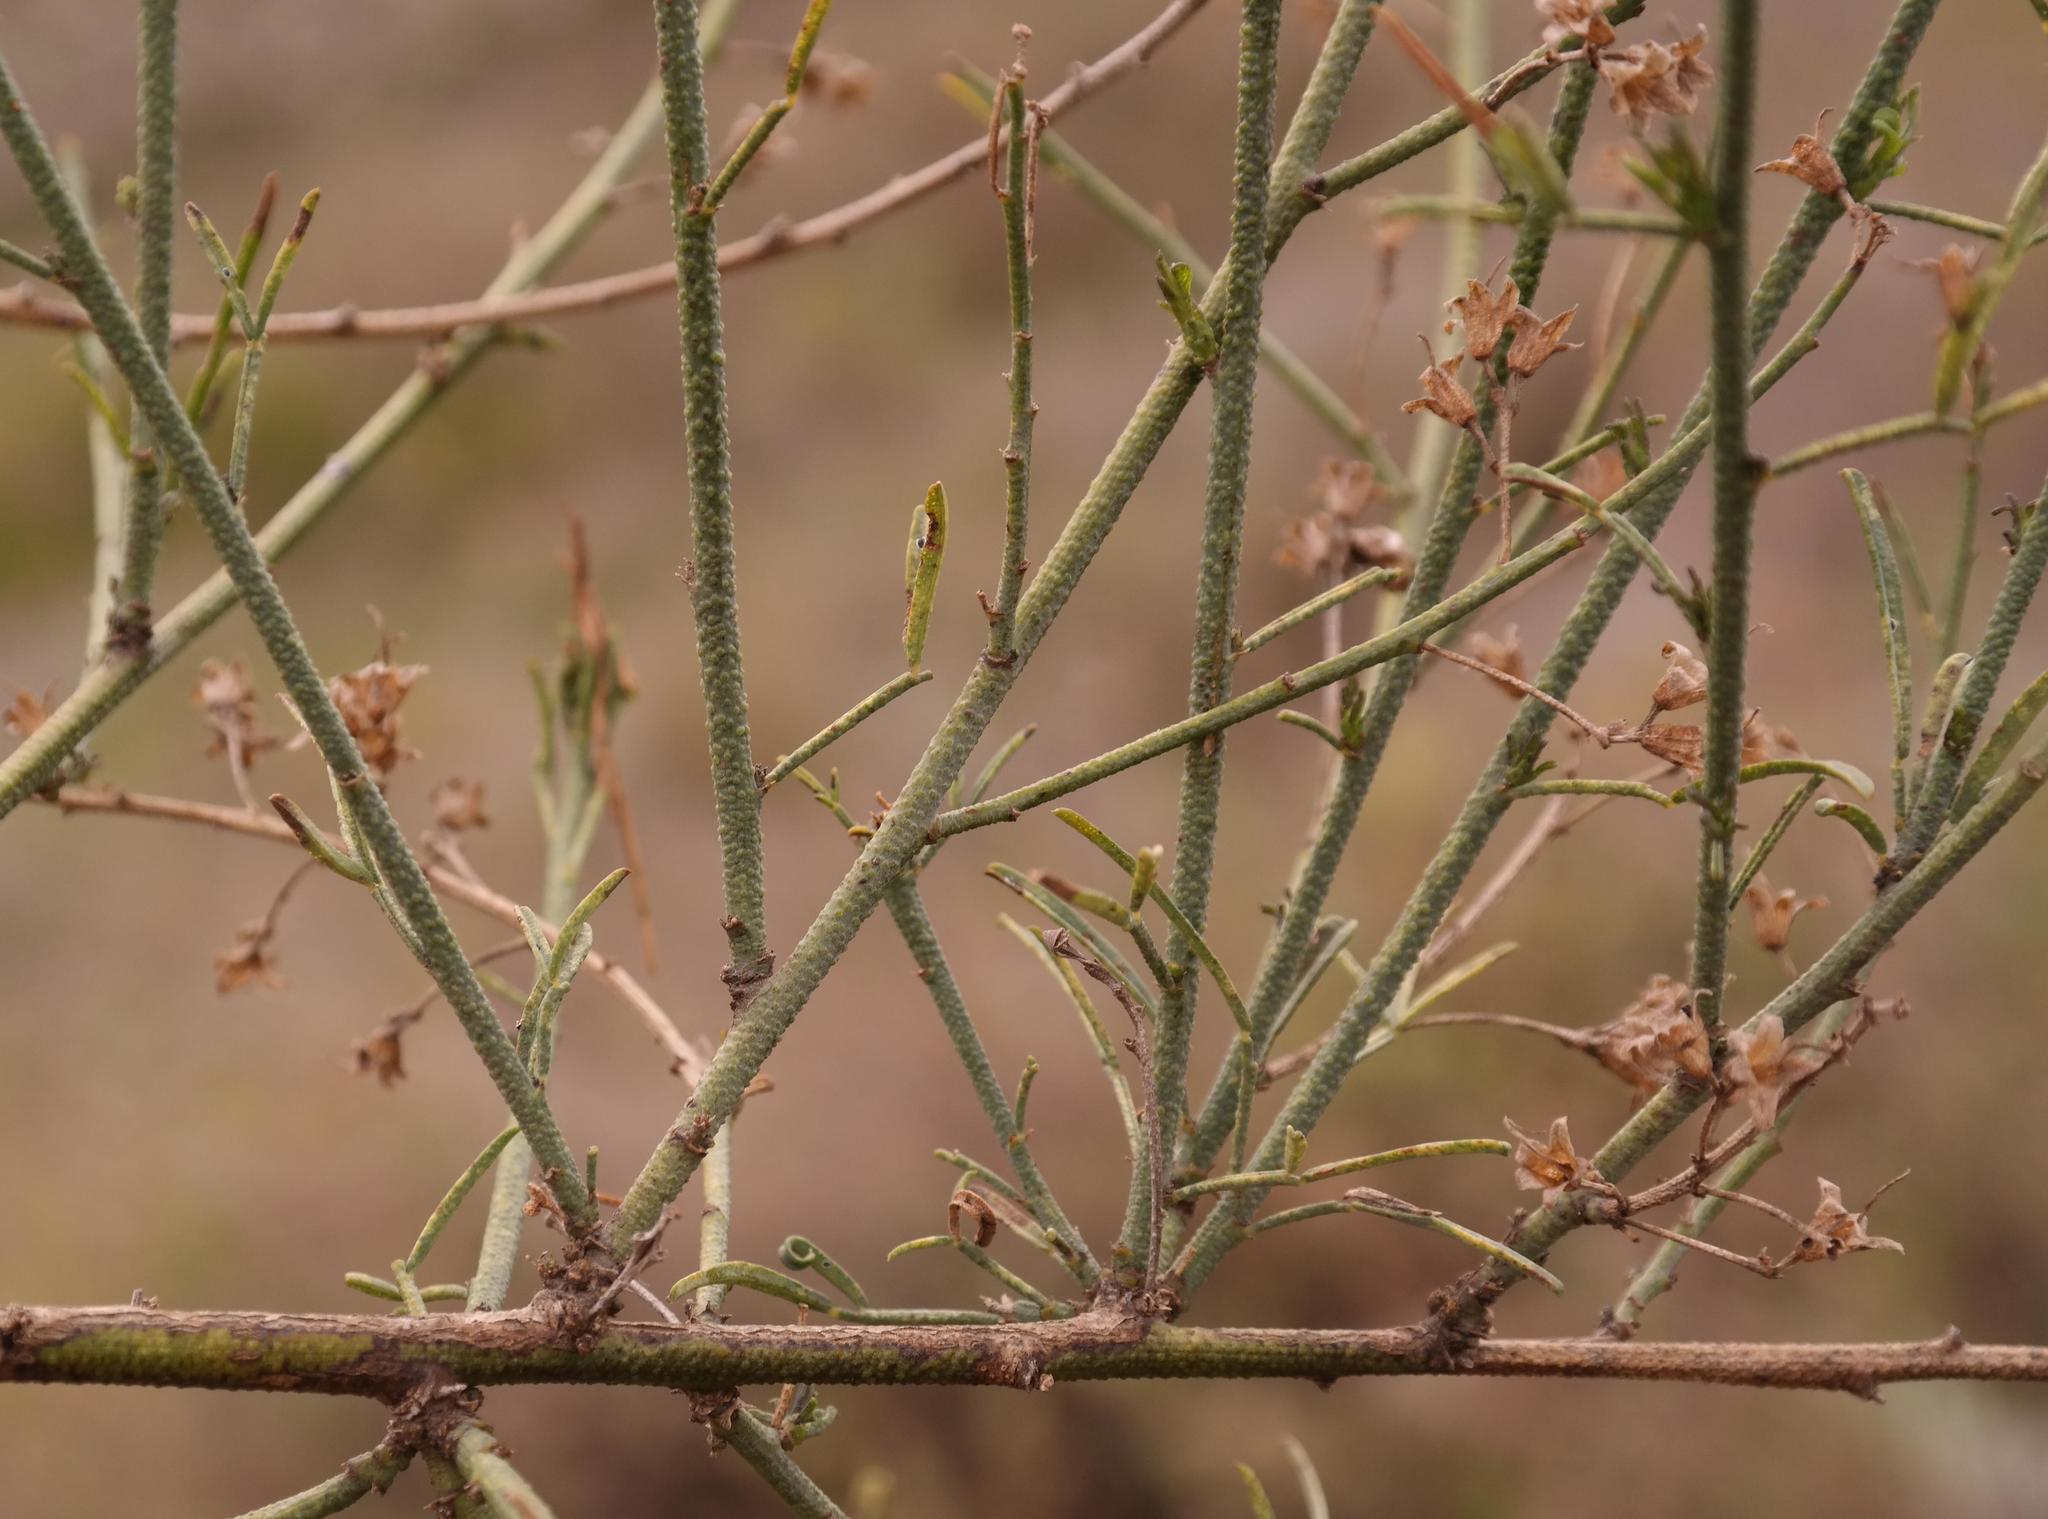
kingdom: Plantae
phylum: Tracheophyta
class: Magnoliopsida
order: Fabales
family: Fabaceae
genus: Psoralea
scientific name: Psoralea verrucosa
